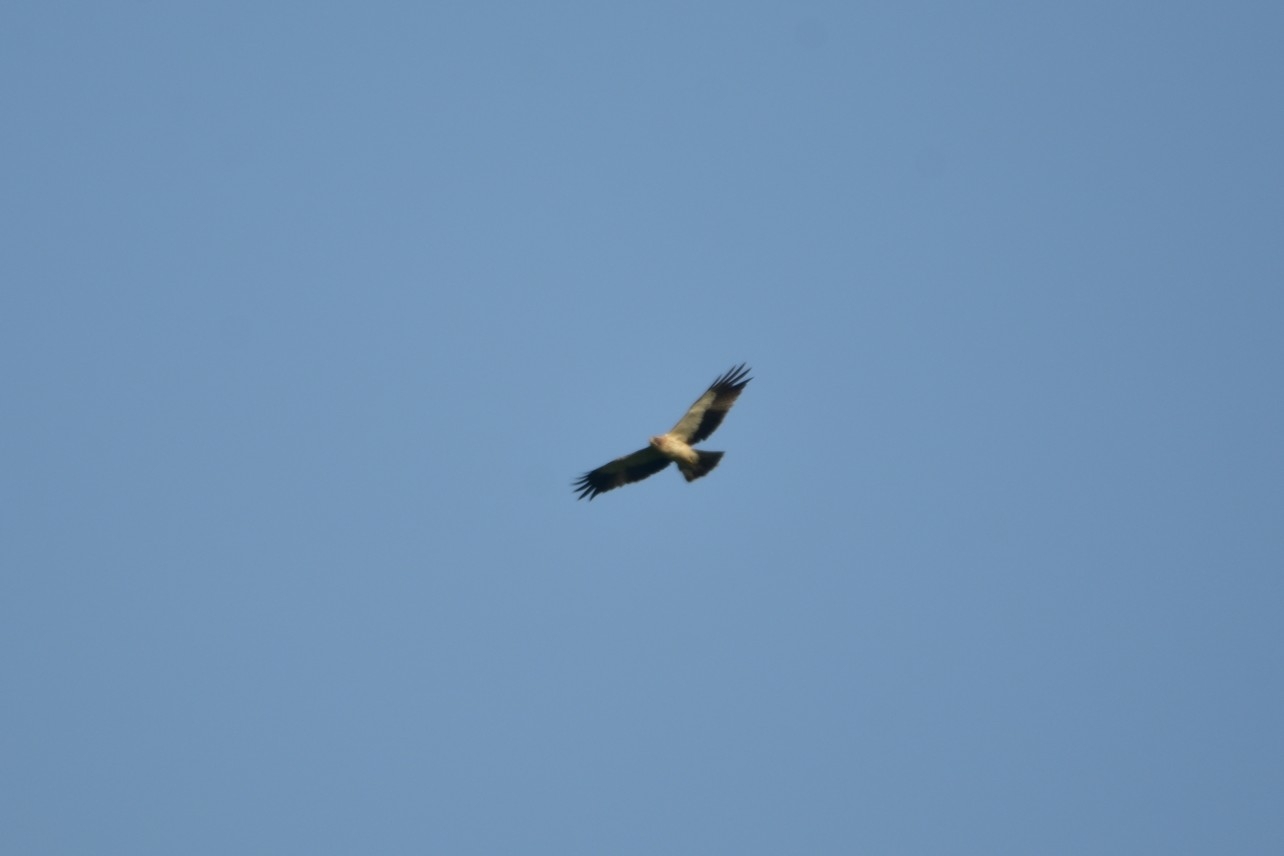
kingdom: Animalia
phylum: Chordata
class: Aves
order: Accipitriformes
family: Accipitridae
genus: Hieraaetus
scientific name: Hieraaetus pennatus
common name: Booted eagle
